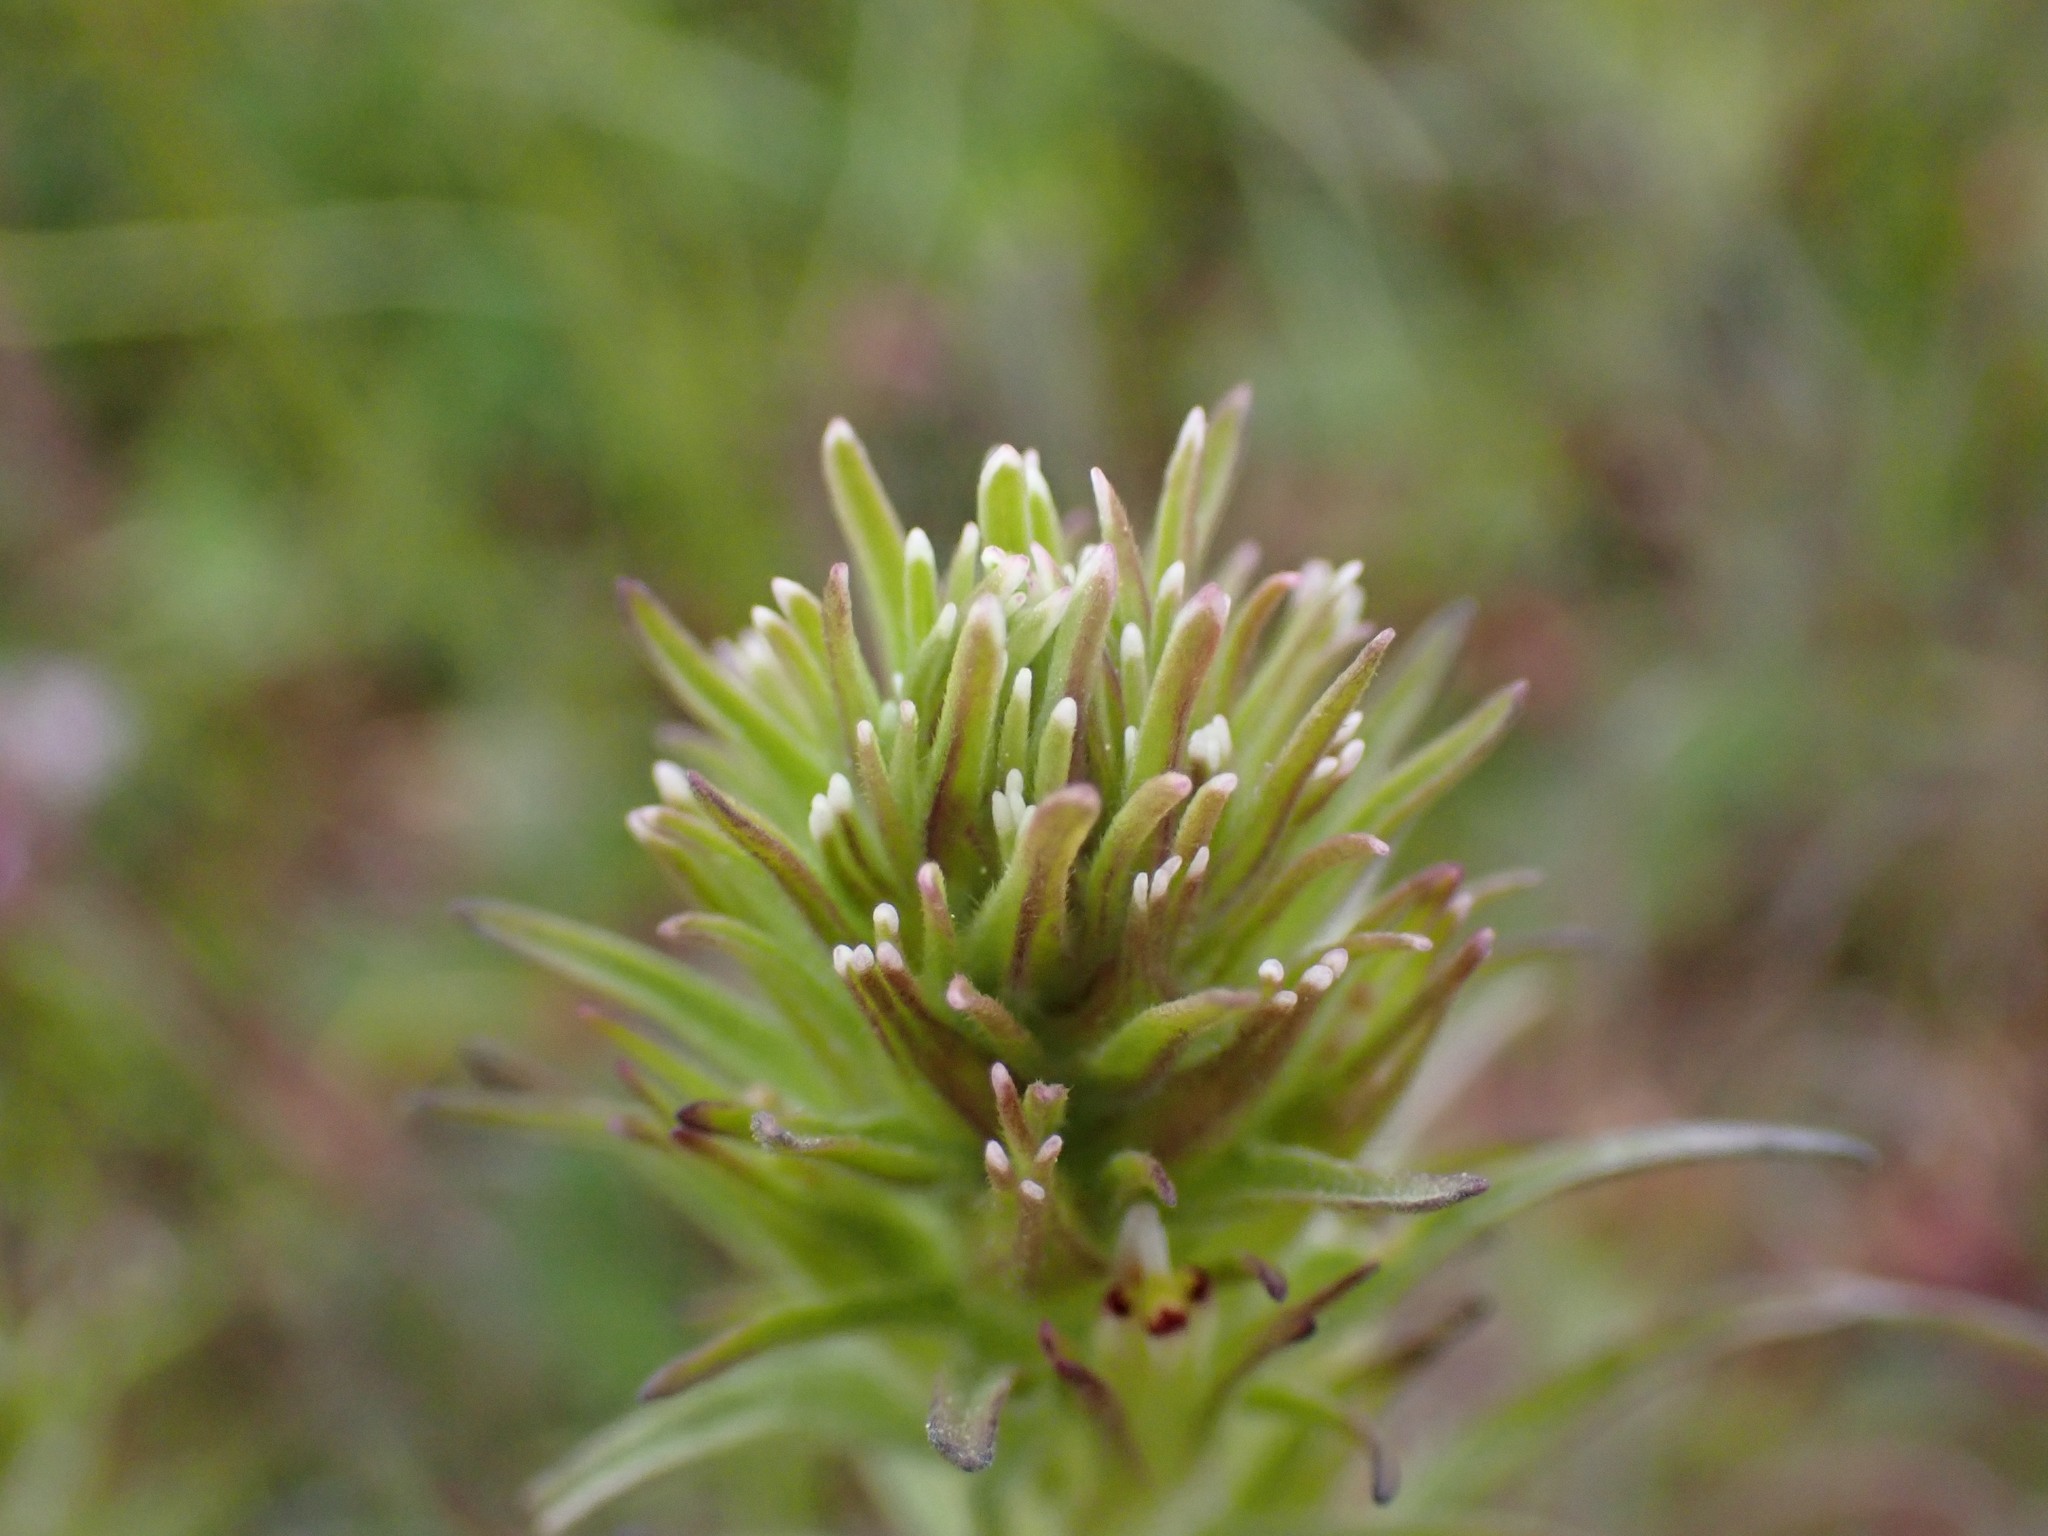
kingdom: Plantae
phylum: Tracheophyta
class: Magnoliopsida
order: Lamiales
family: Orobanchaceae
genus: Castilleja
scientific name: Castilleja attenuata
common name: Valley tassels
